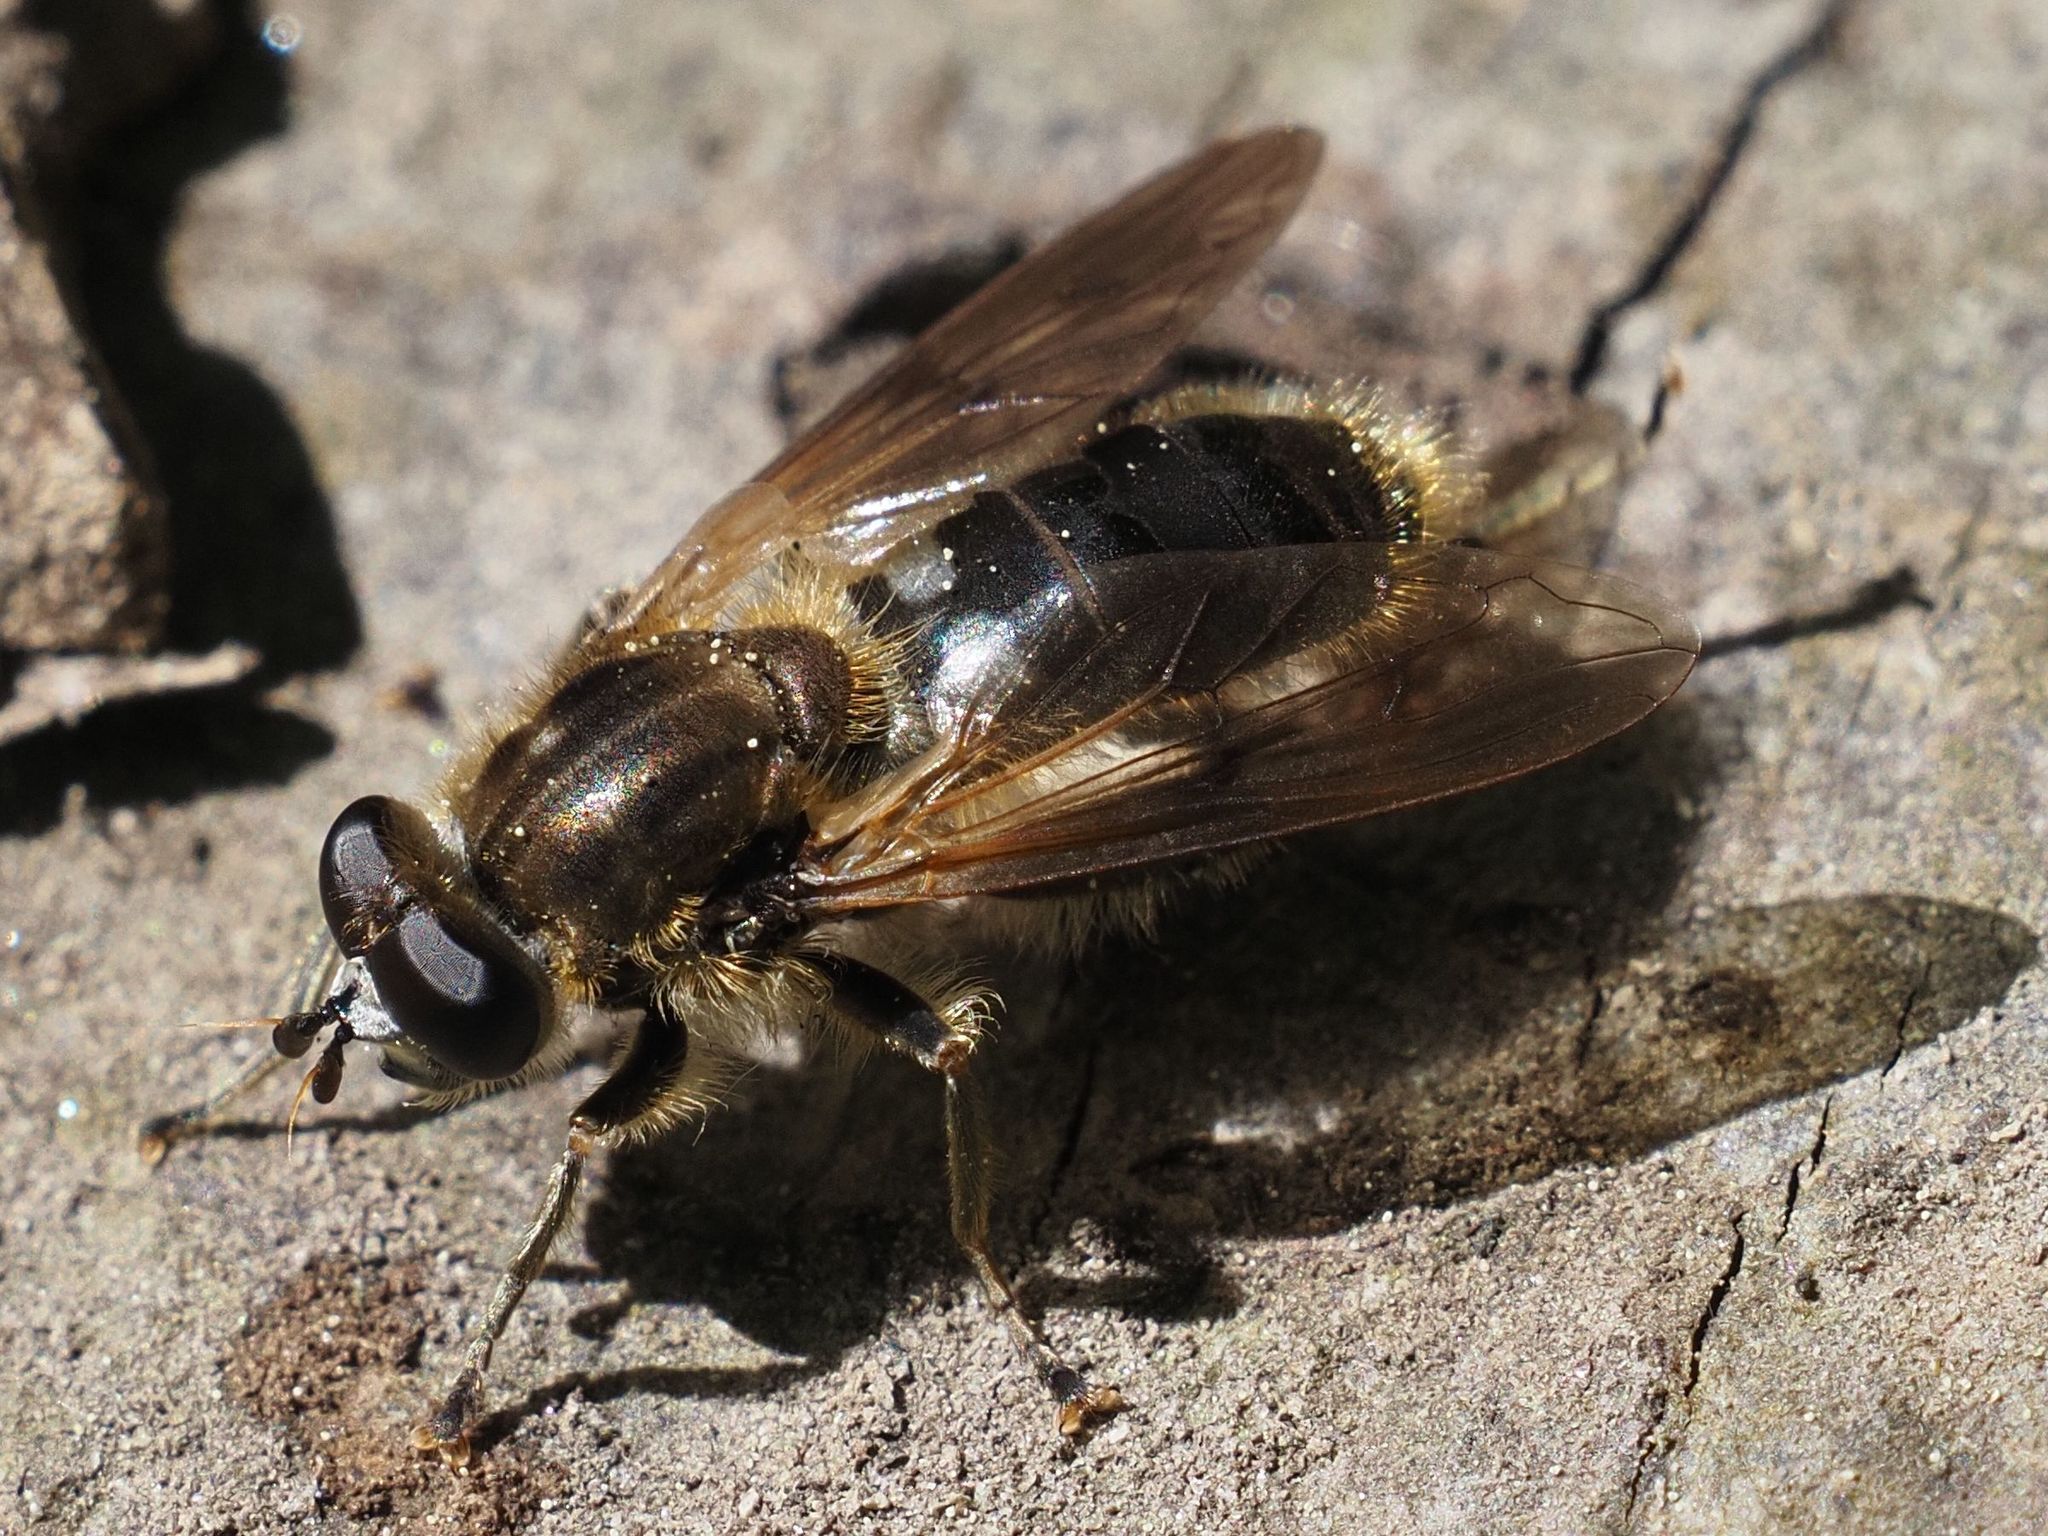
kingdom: Animalia
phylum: Arthropoda
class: Insecta
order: Diptera
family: Syrphidae
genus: Chalcosyrphus
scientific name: Chalcosyrphus eunotus
